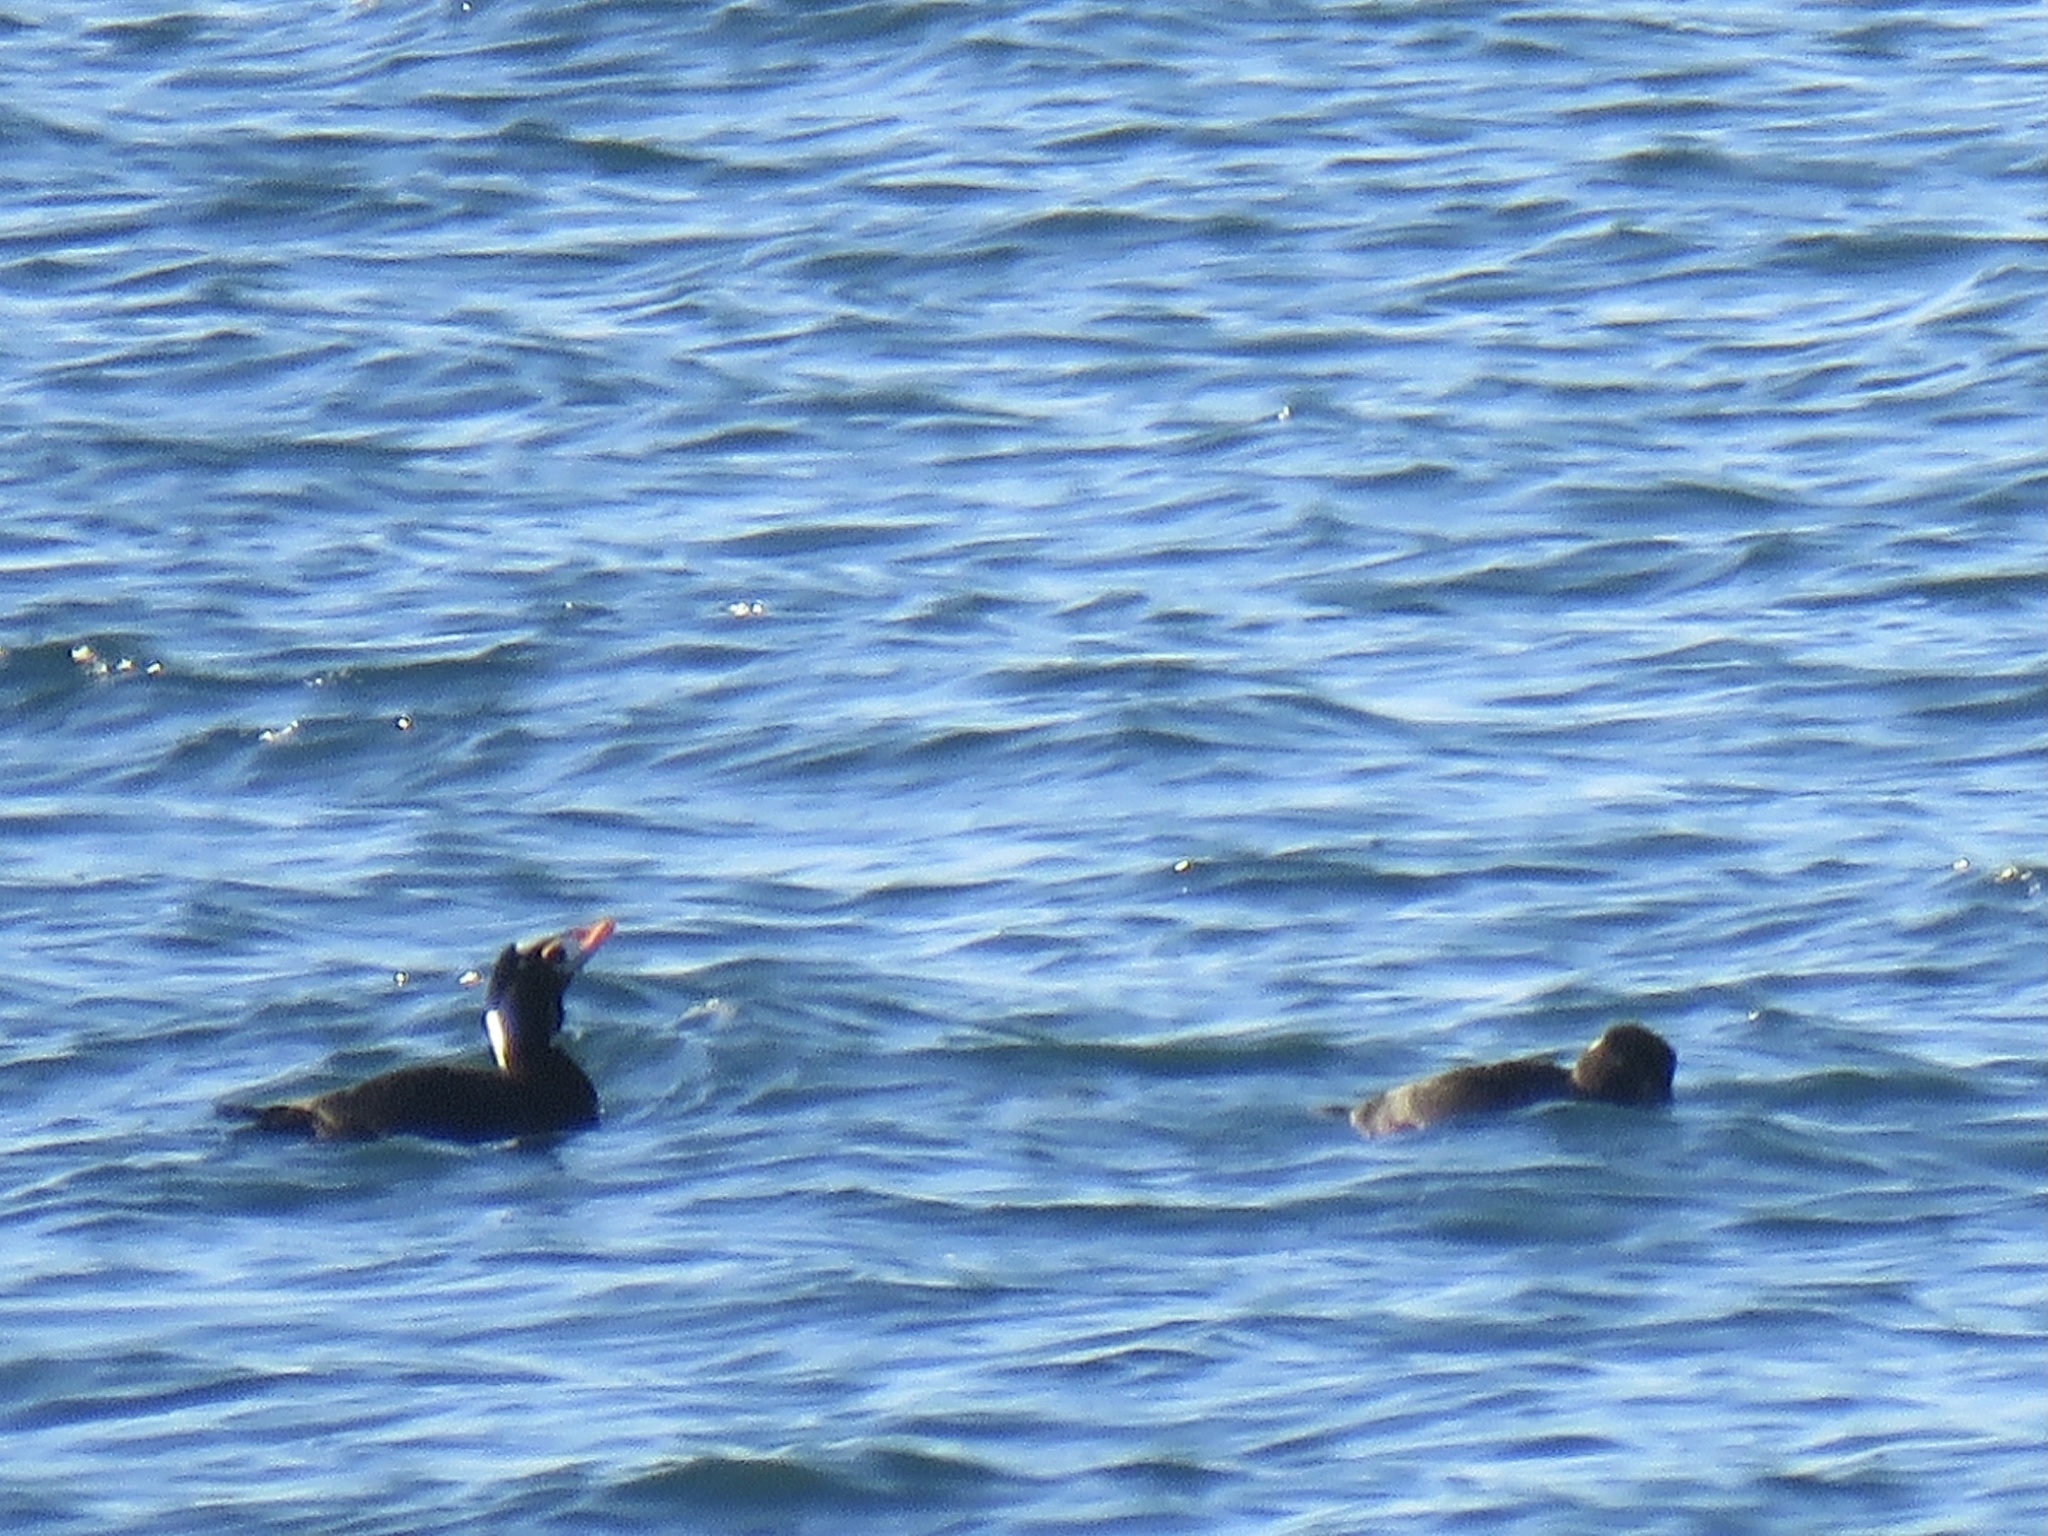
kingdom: Animalia
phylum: Chordata
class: Aves
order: Anseriformes
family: Anatidae
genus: Melanitta
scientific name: Melanitta perspicillata
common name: Surf scoter
